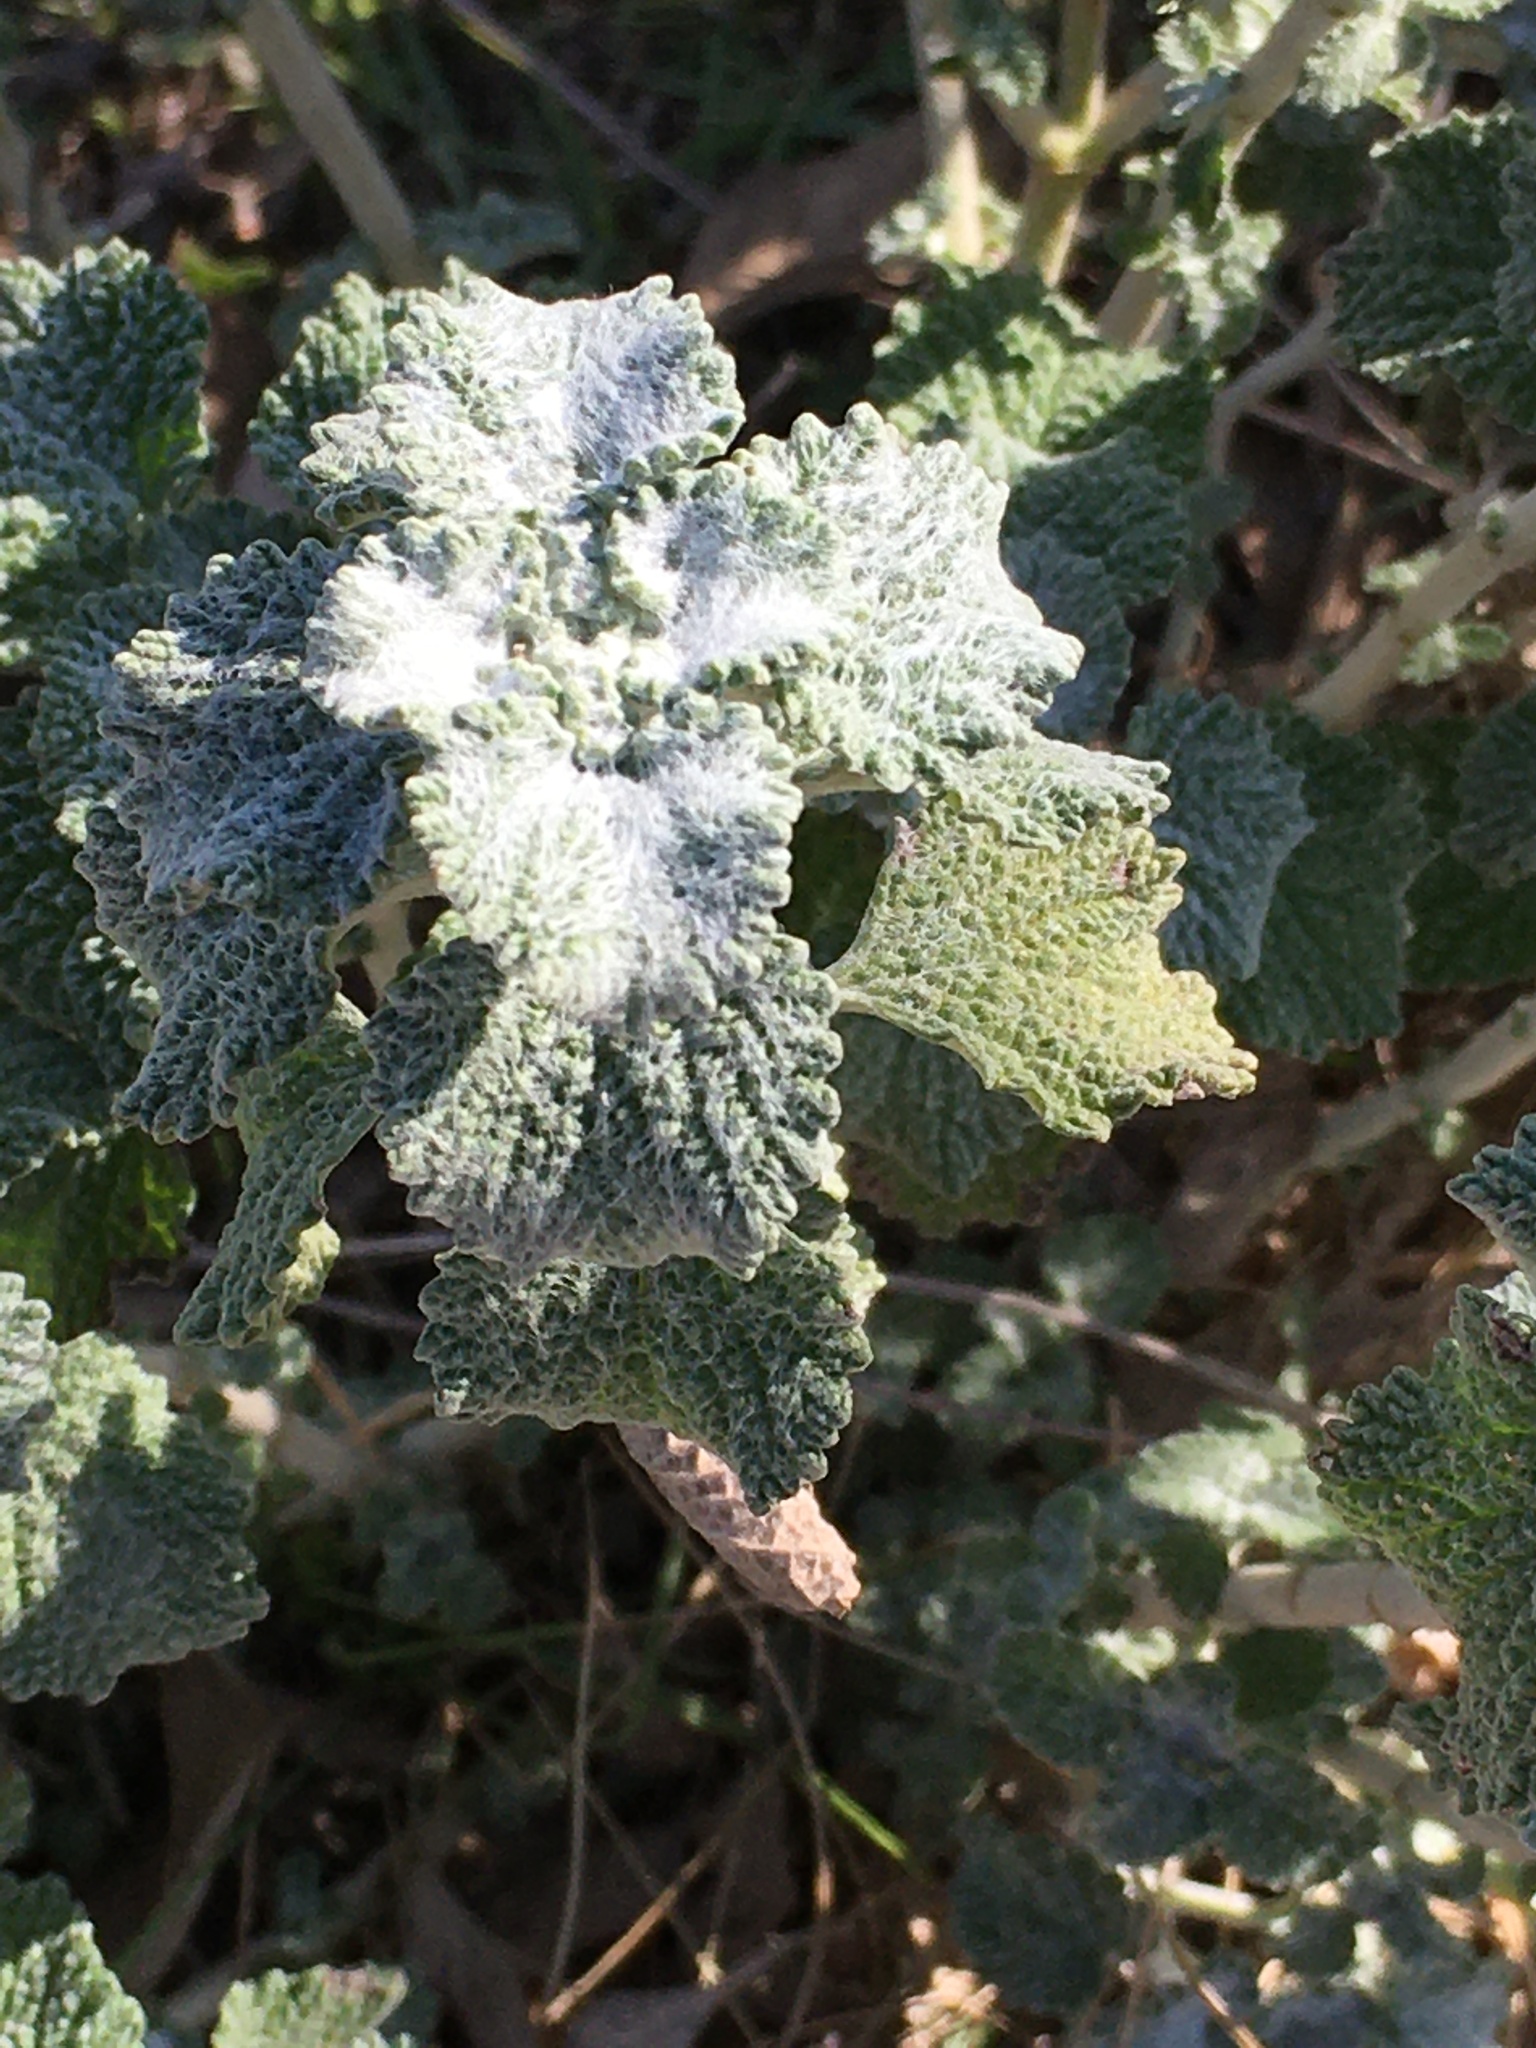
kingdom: Plantae
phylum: Tracheophyta
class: Magnoliopsida
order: Lamiales
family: Lamiaceae
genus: Marrubium
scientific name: Marrubium vulgare
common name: Horehound
